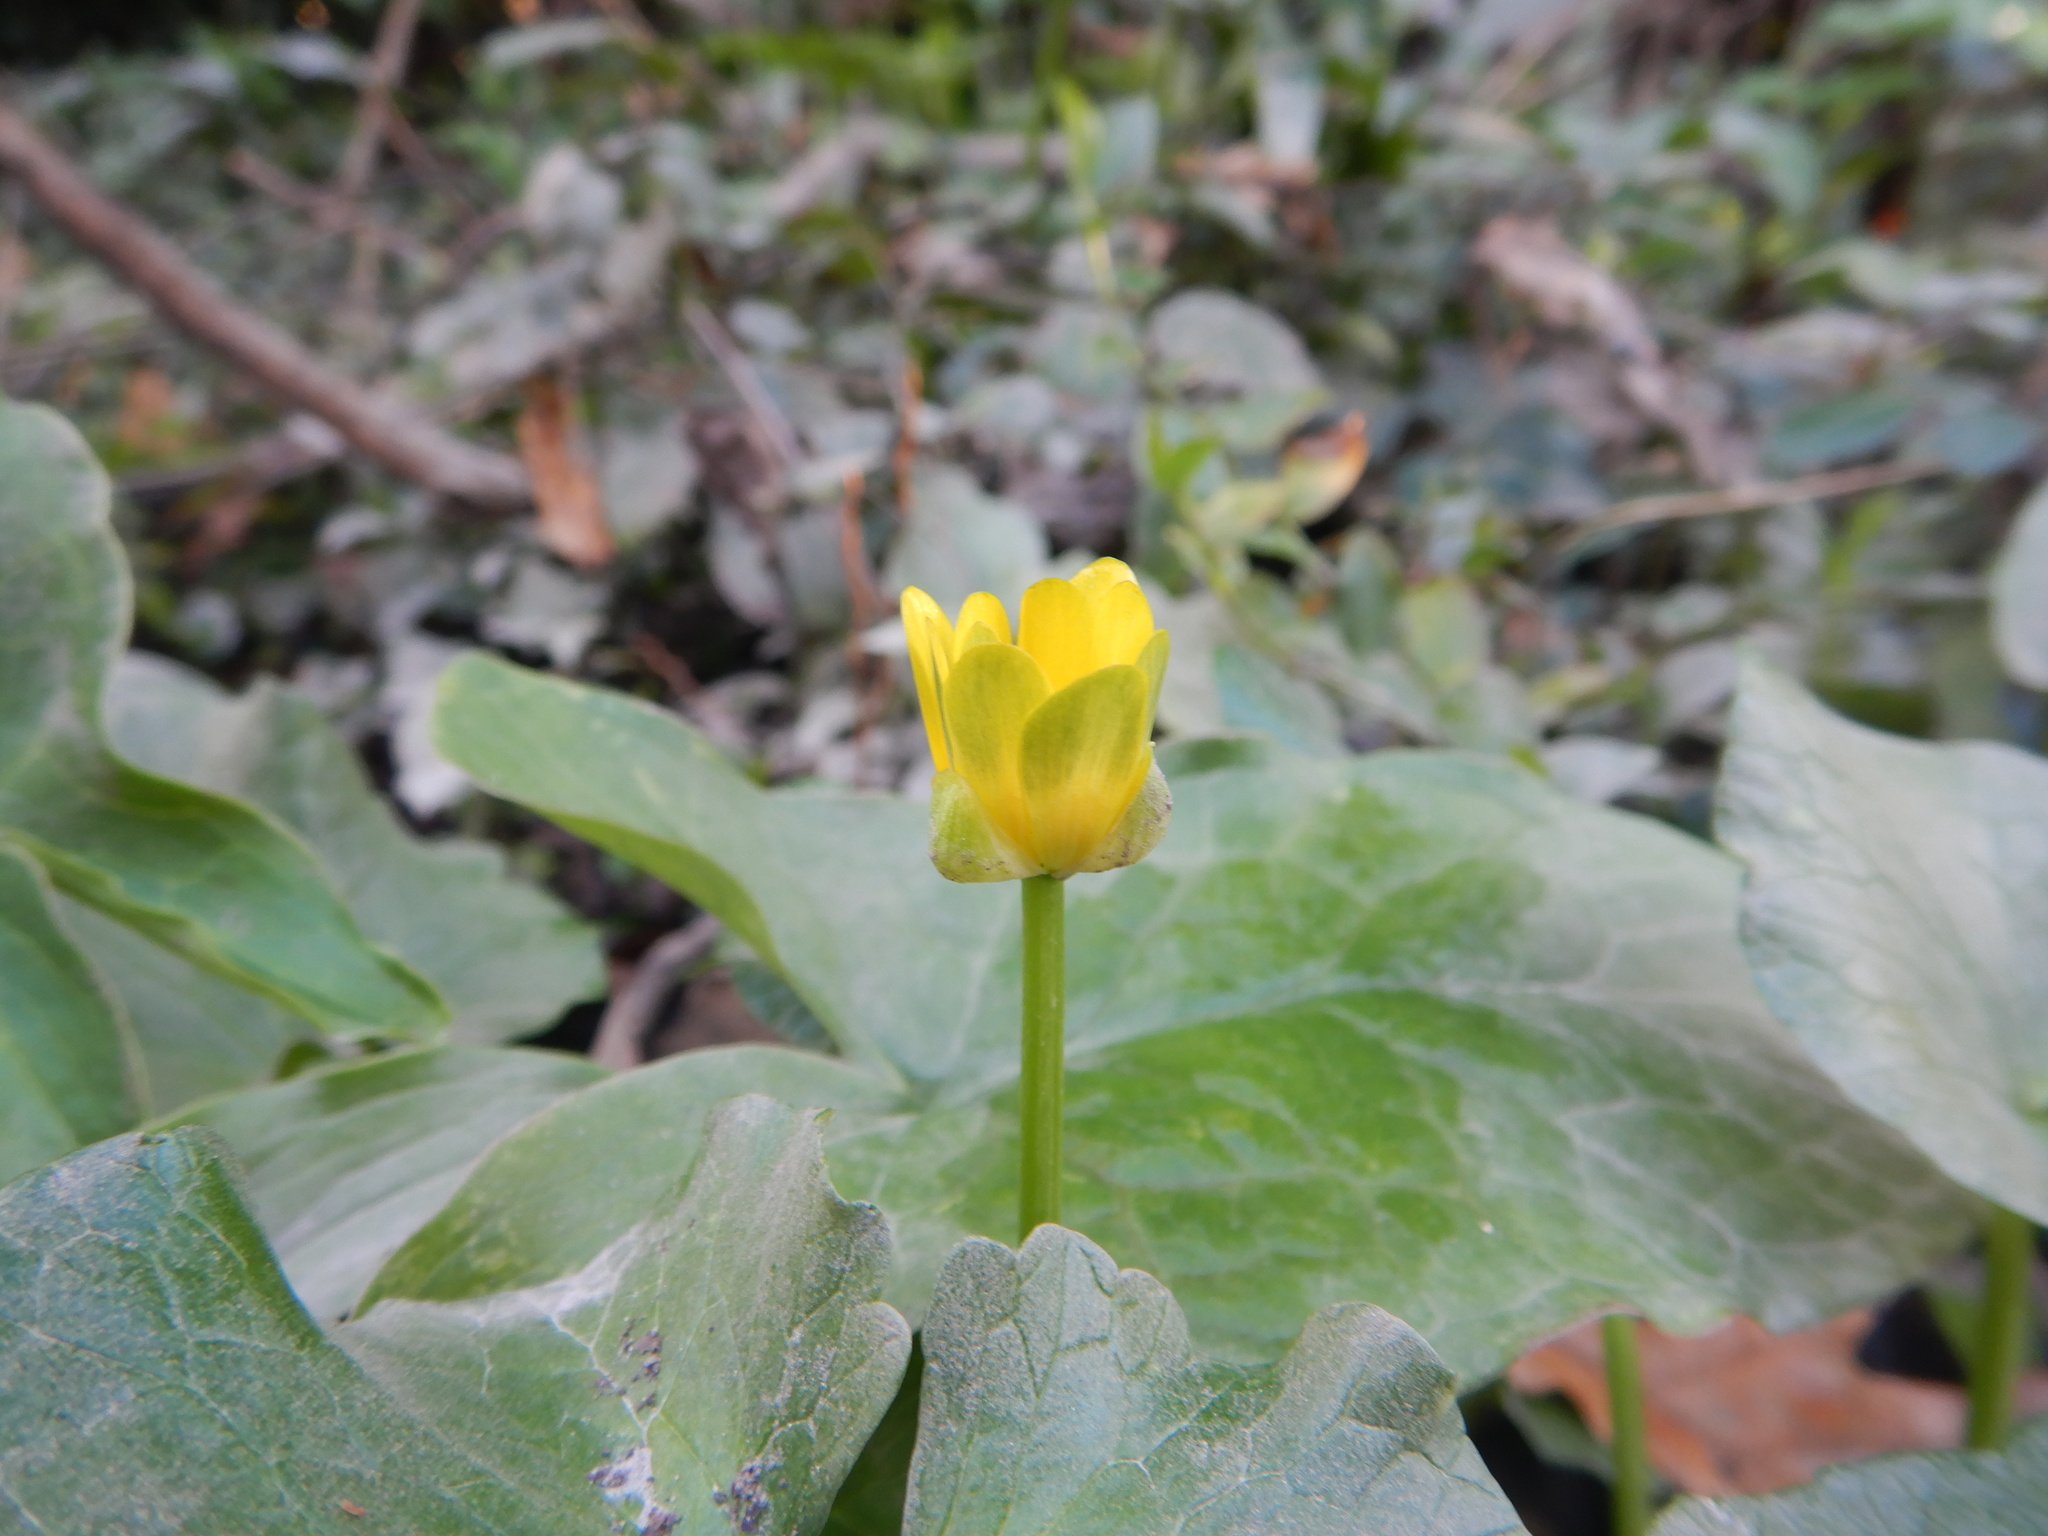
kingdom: Plantae
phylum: Tracheophyta
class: Magnoliopsida
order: Ranunculales
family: Ranunculaceae
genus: Ficaria
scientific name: Ficaria verna
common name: Lesser celandine
